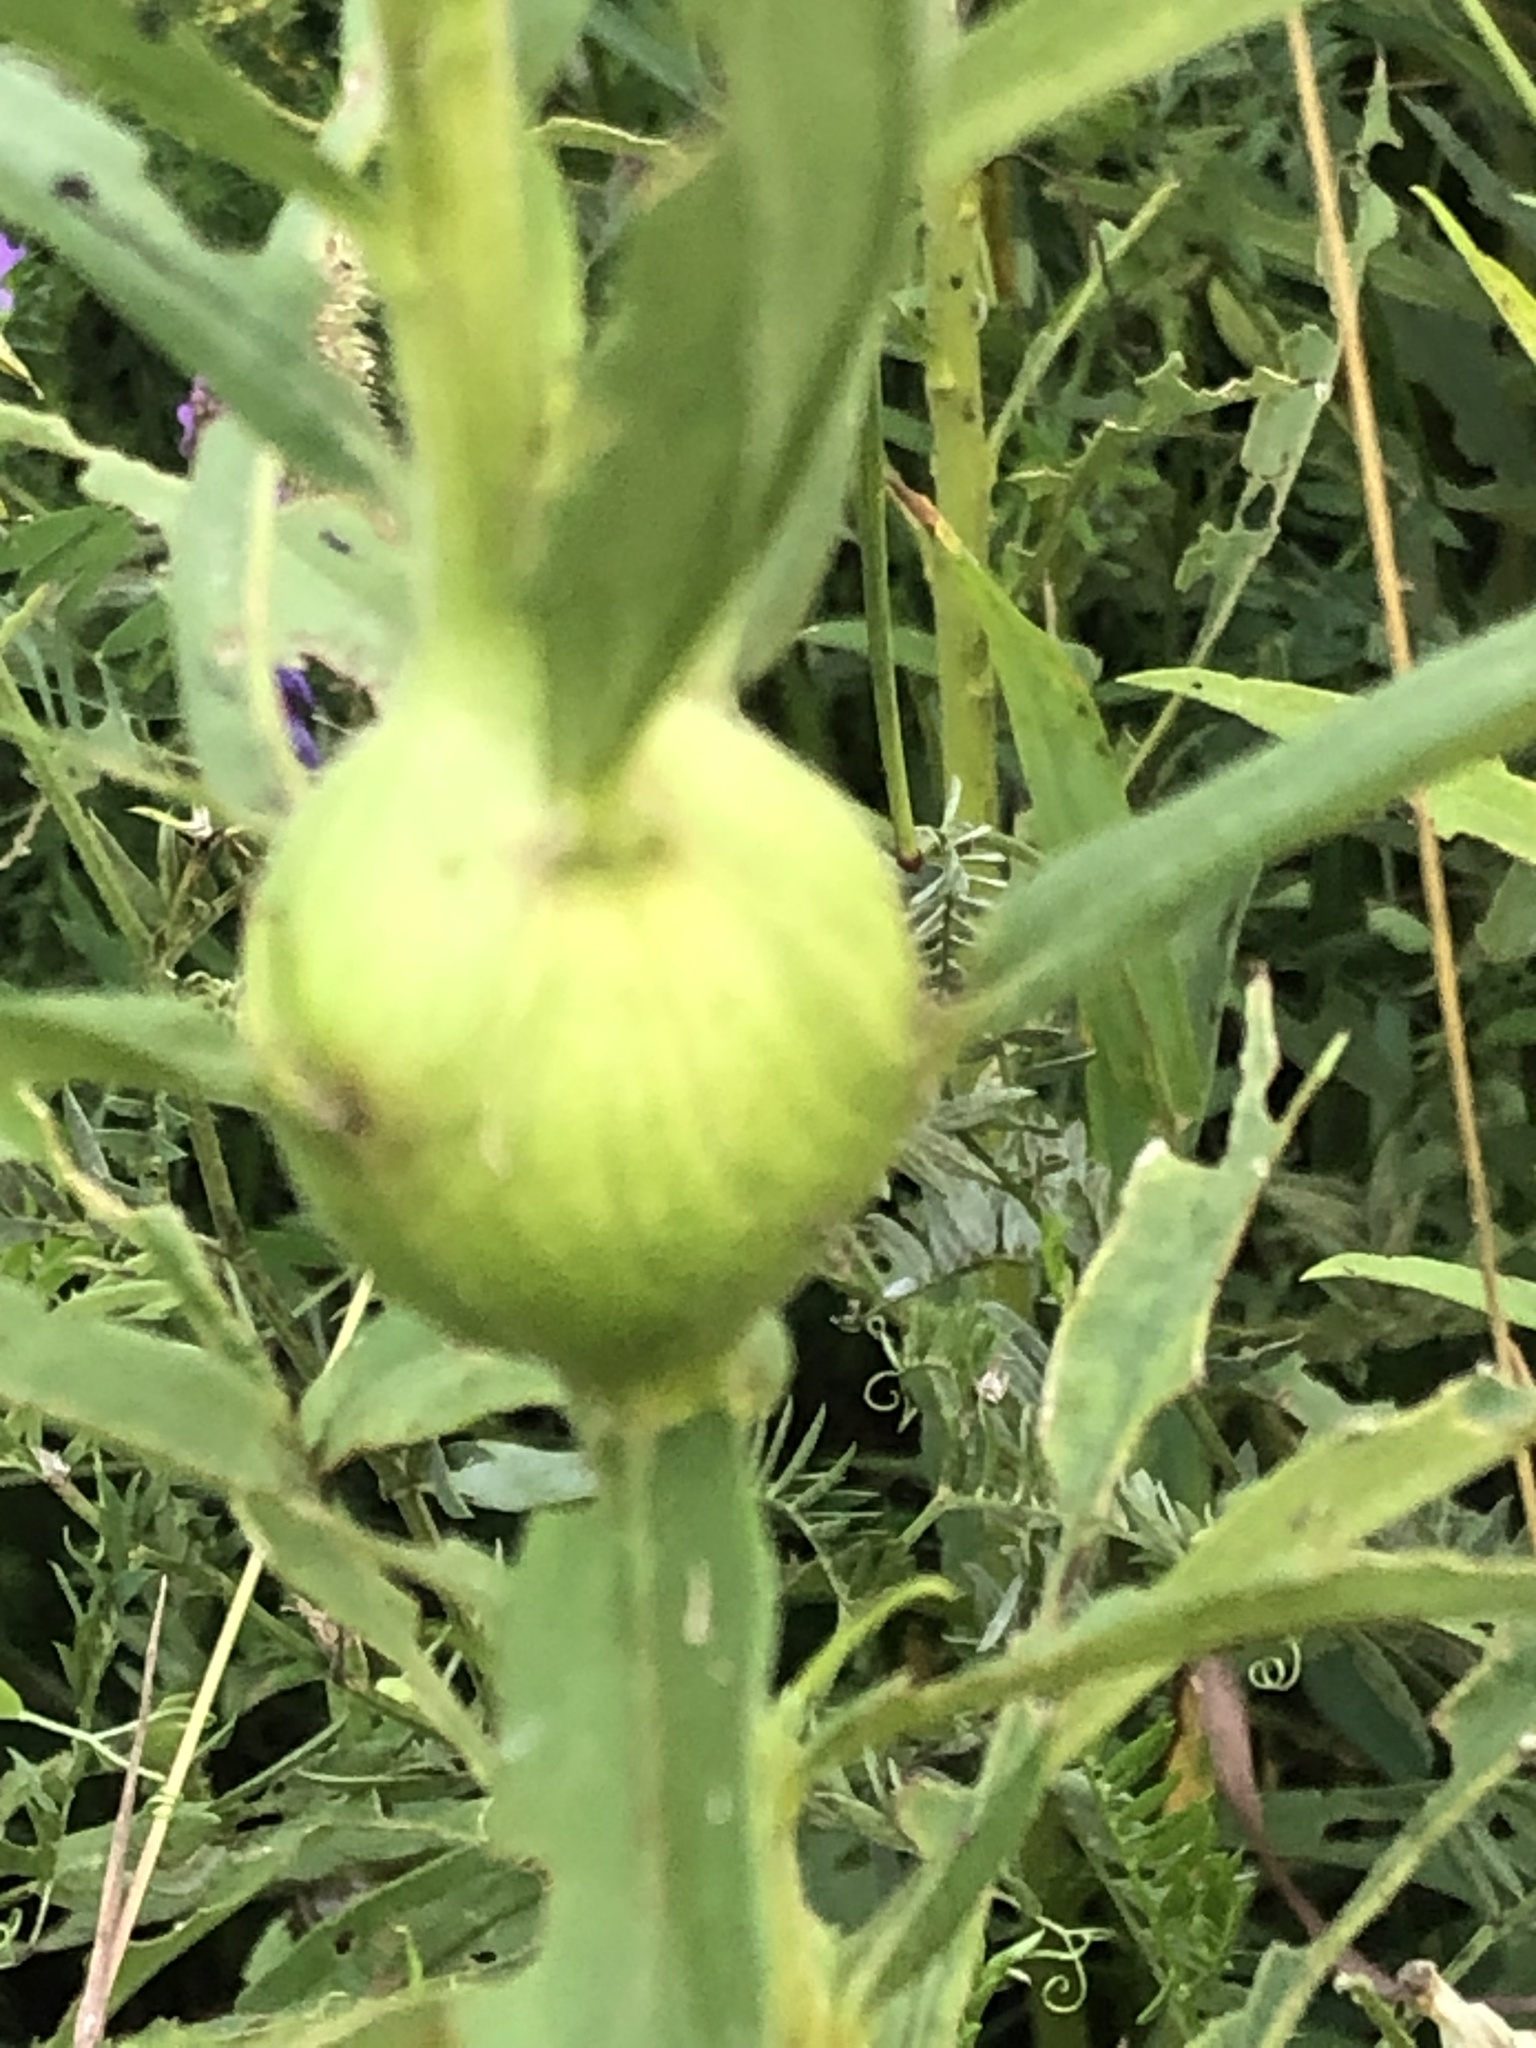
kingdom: Animalia
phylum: Arthropoda
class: Insecta
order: Diptera
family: Tephritidae
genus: Eurosta
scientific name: Eurosta solidaginis
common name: Goldenrod gall fly
